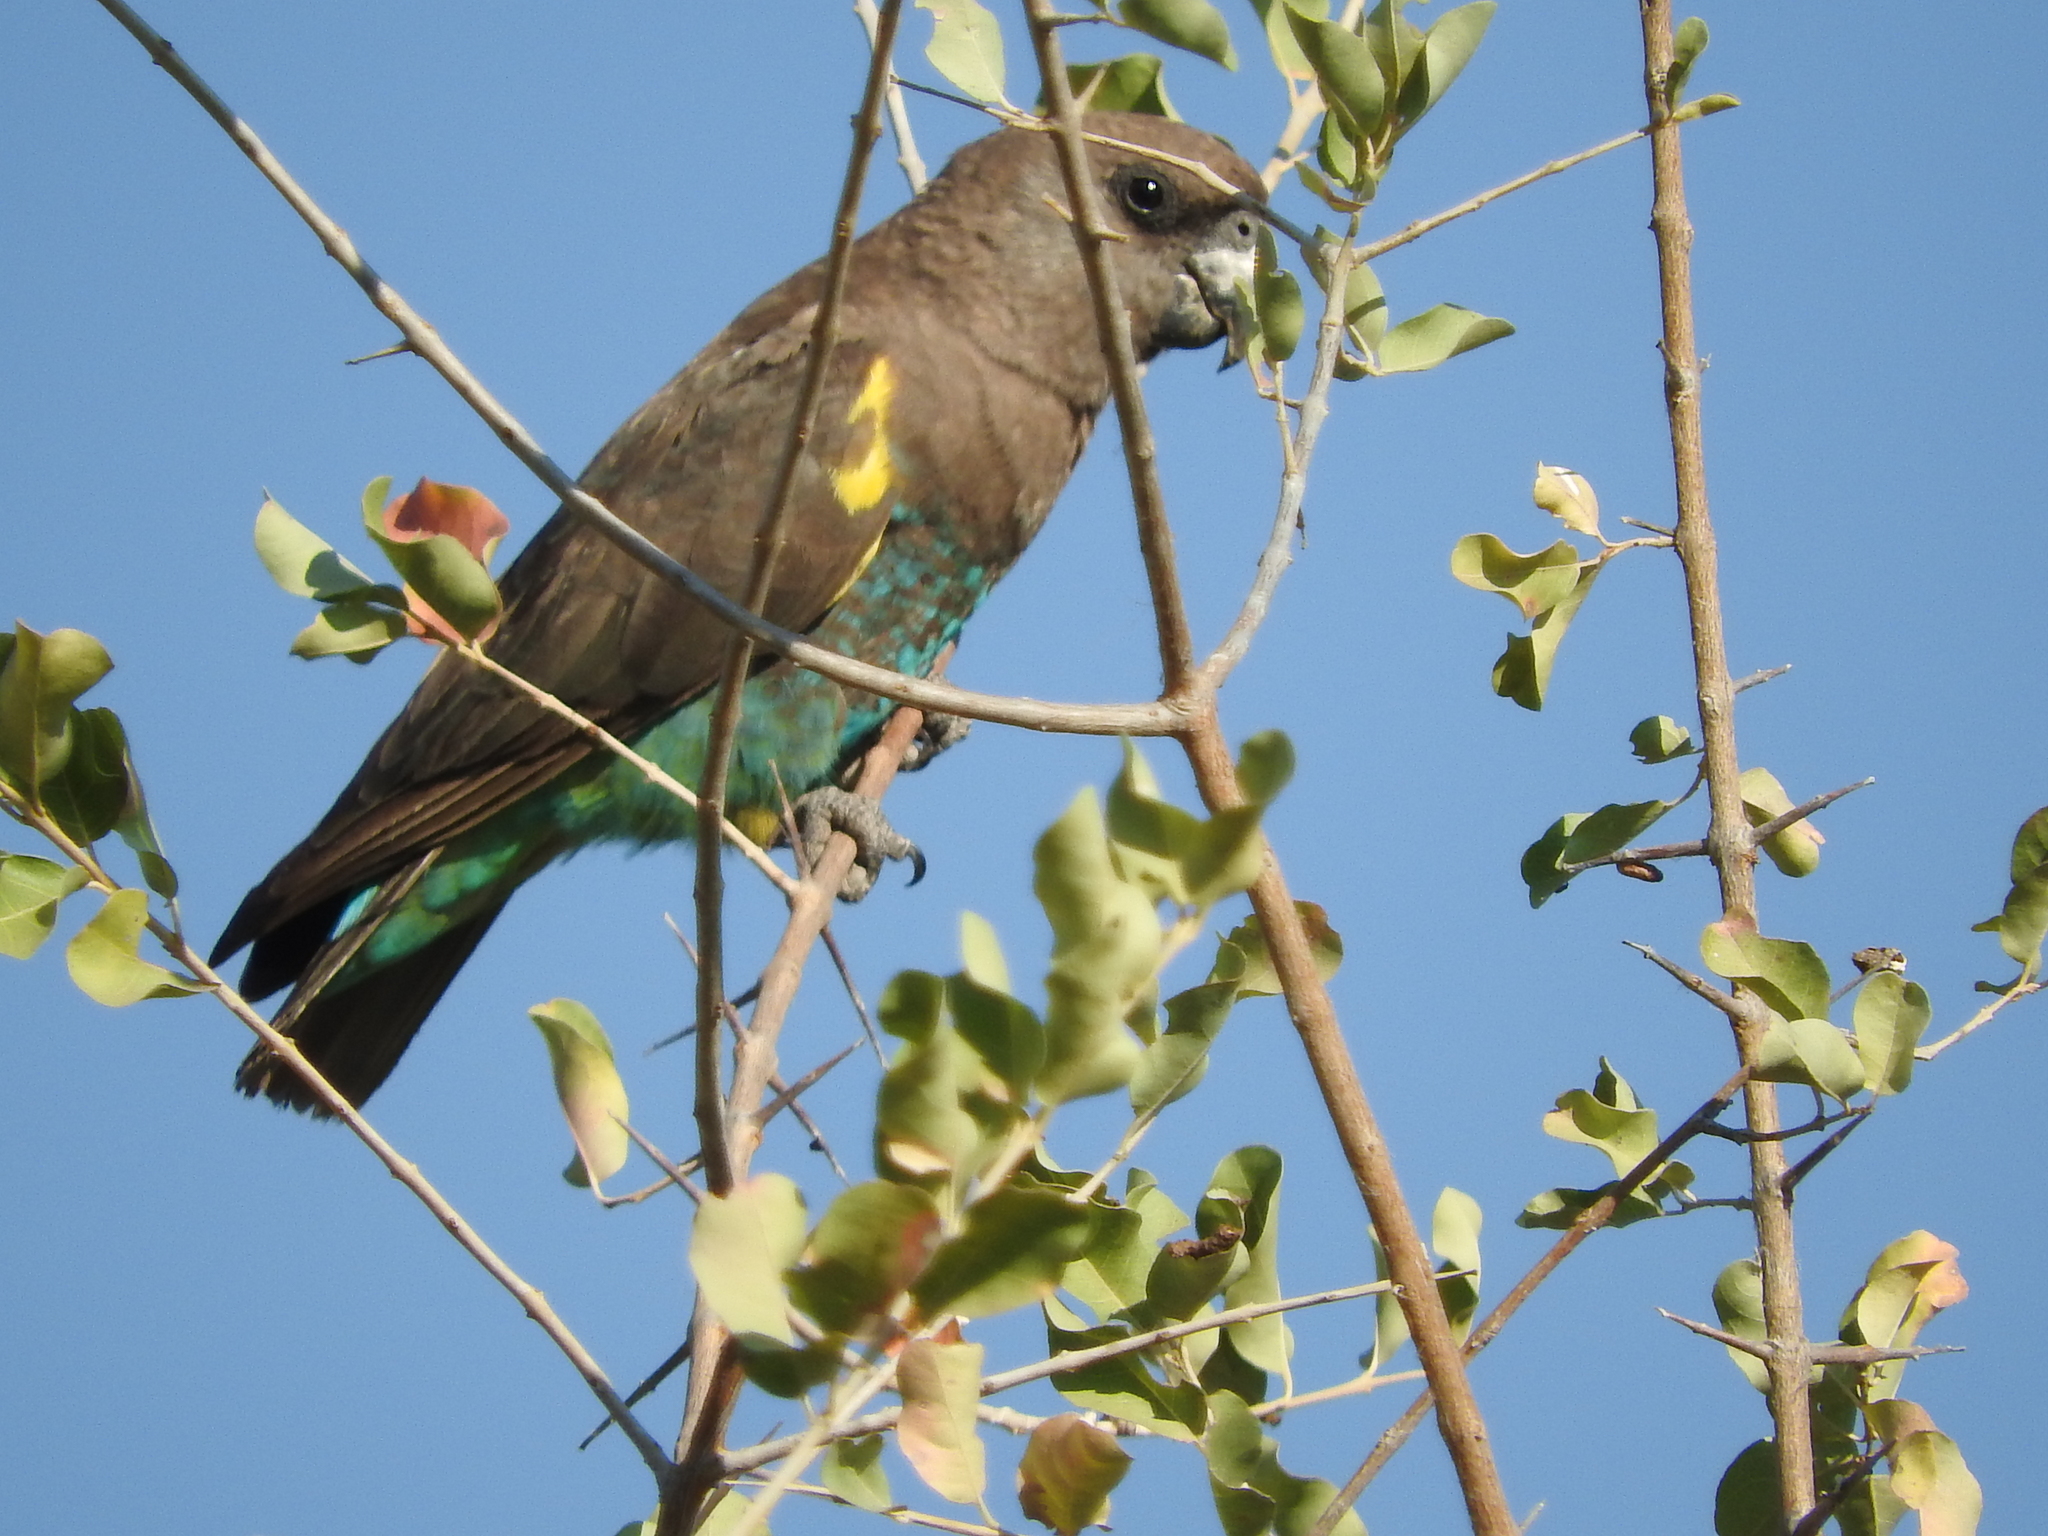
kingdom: Animalia
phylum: Chordata
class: Aves
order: Psittaciformes
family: Psittacidae
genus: Poicephalus
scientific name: Poicephalus meyeri
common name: Meyer's parrot
